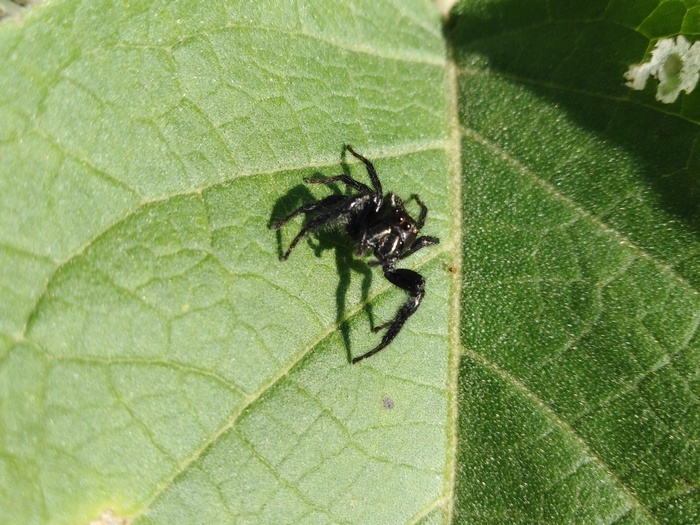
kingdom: Animalia
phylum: Arthropoda
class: Arachnida
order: Araneae
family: Salticidae
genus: Carrhotus
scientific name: Carrhotus viduus
